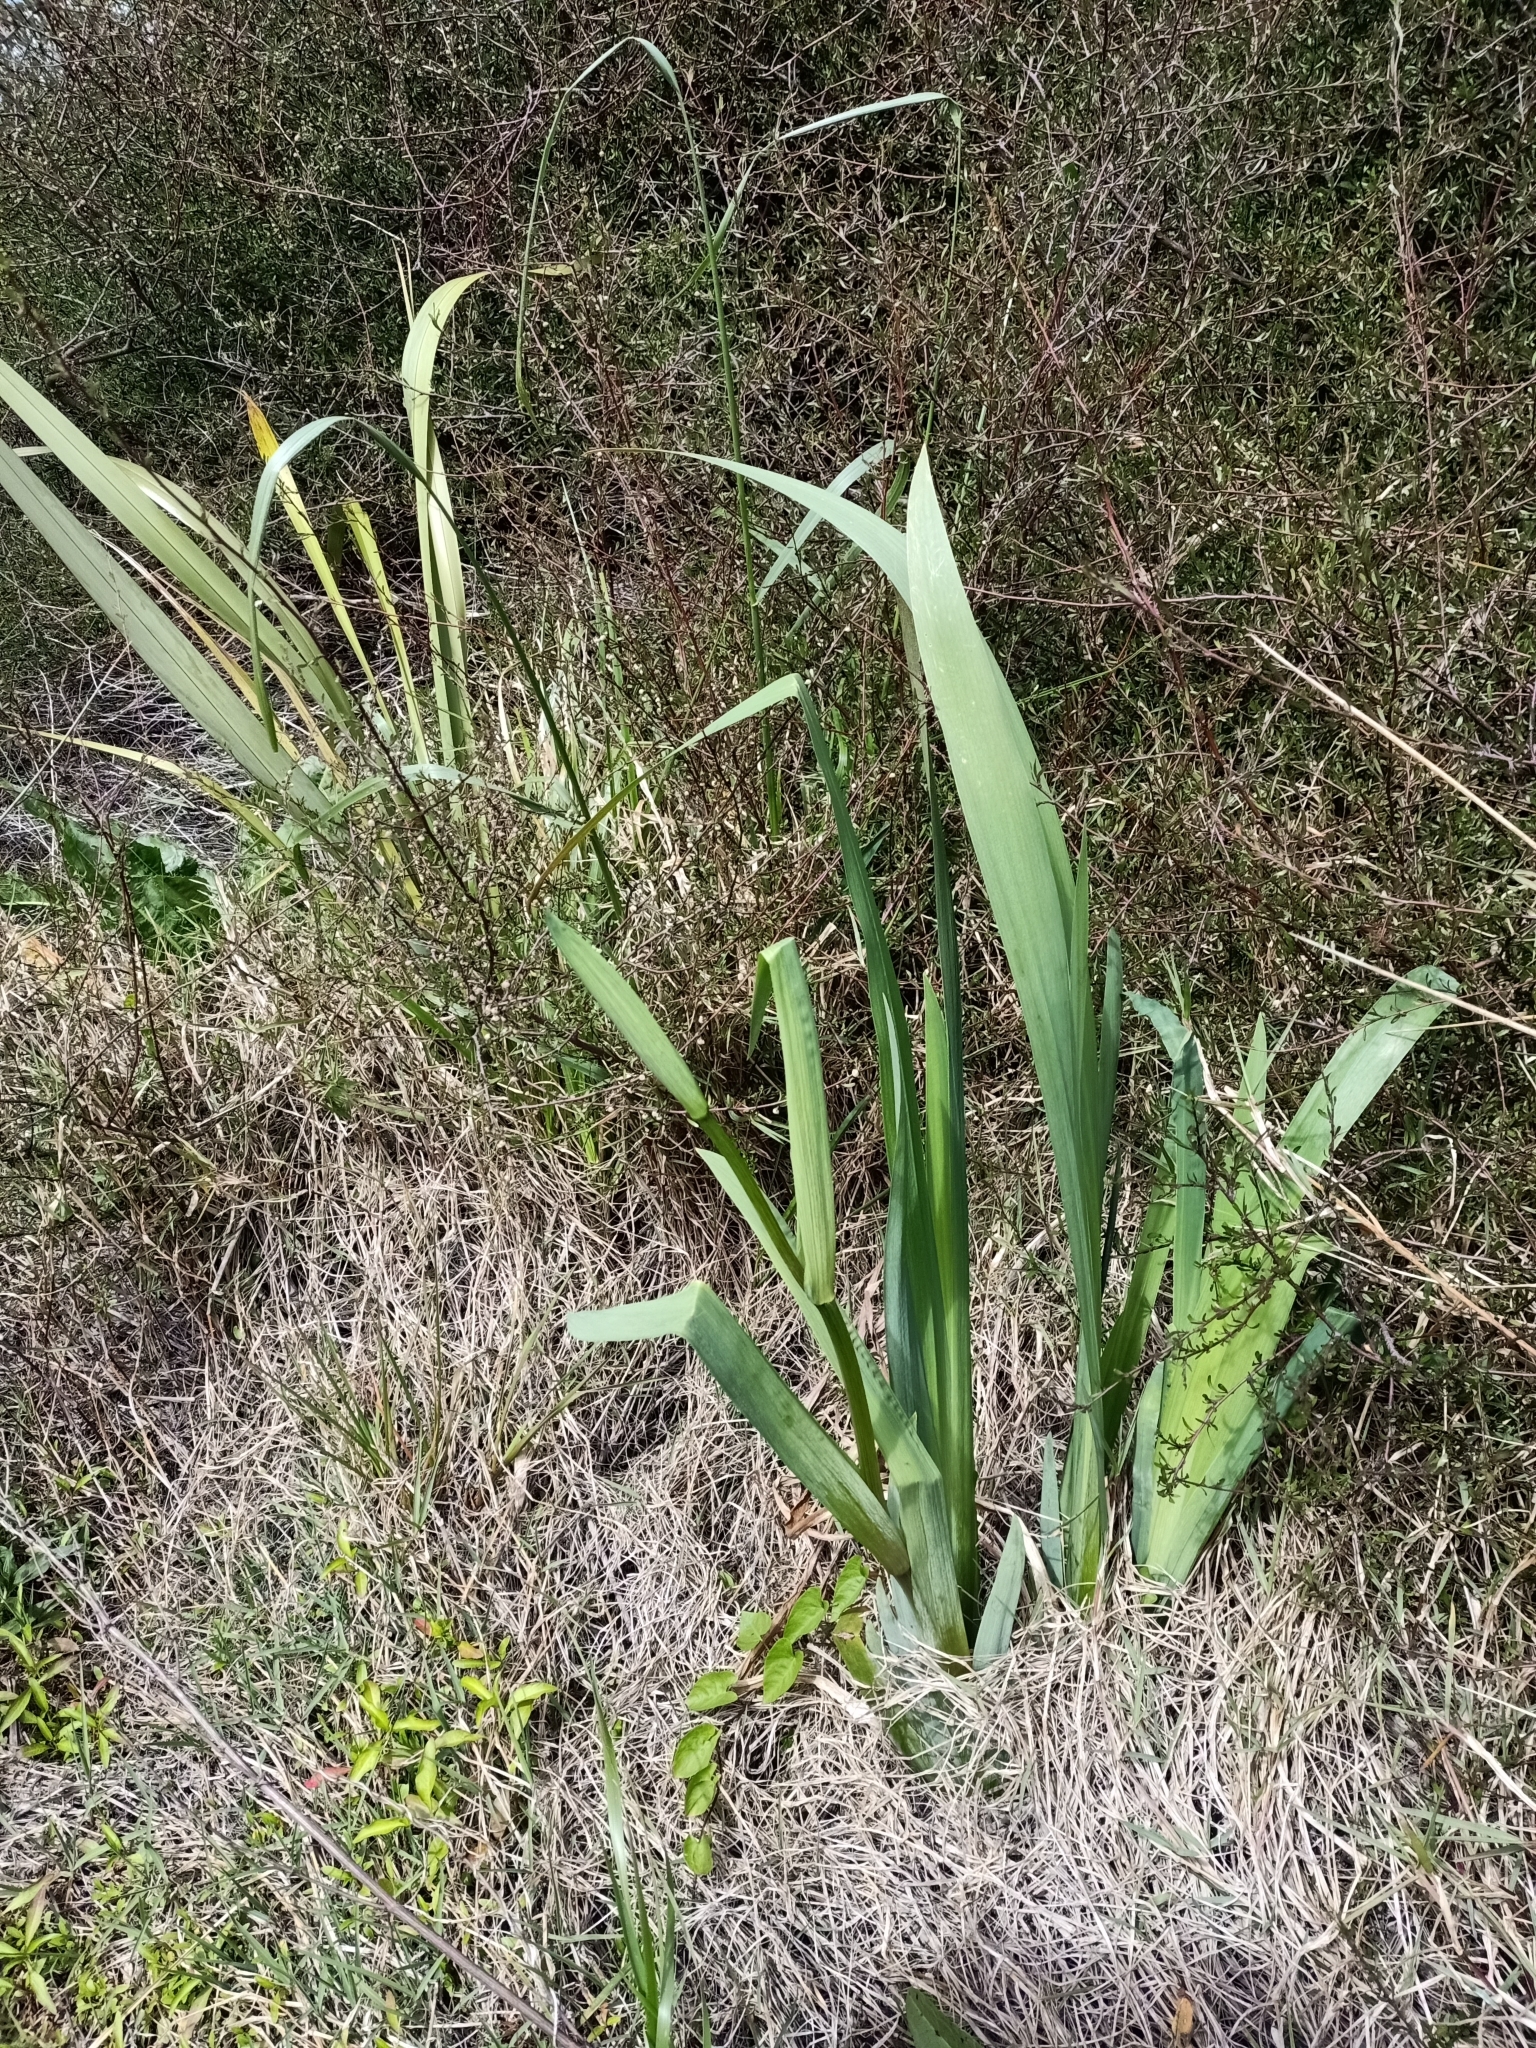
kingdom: Plantae
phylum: Tracheophyta
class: Liliopsida
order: Asparagales
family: Iridaceae
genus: Iris
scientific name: Iris pseudacorus
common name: Yellow flag
